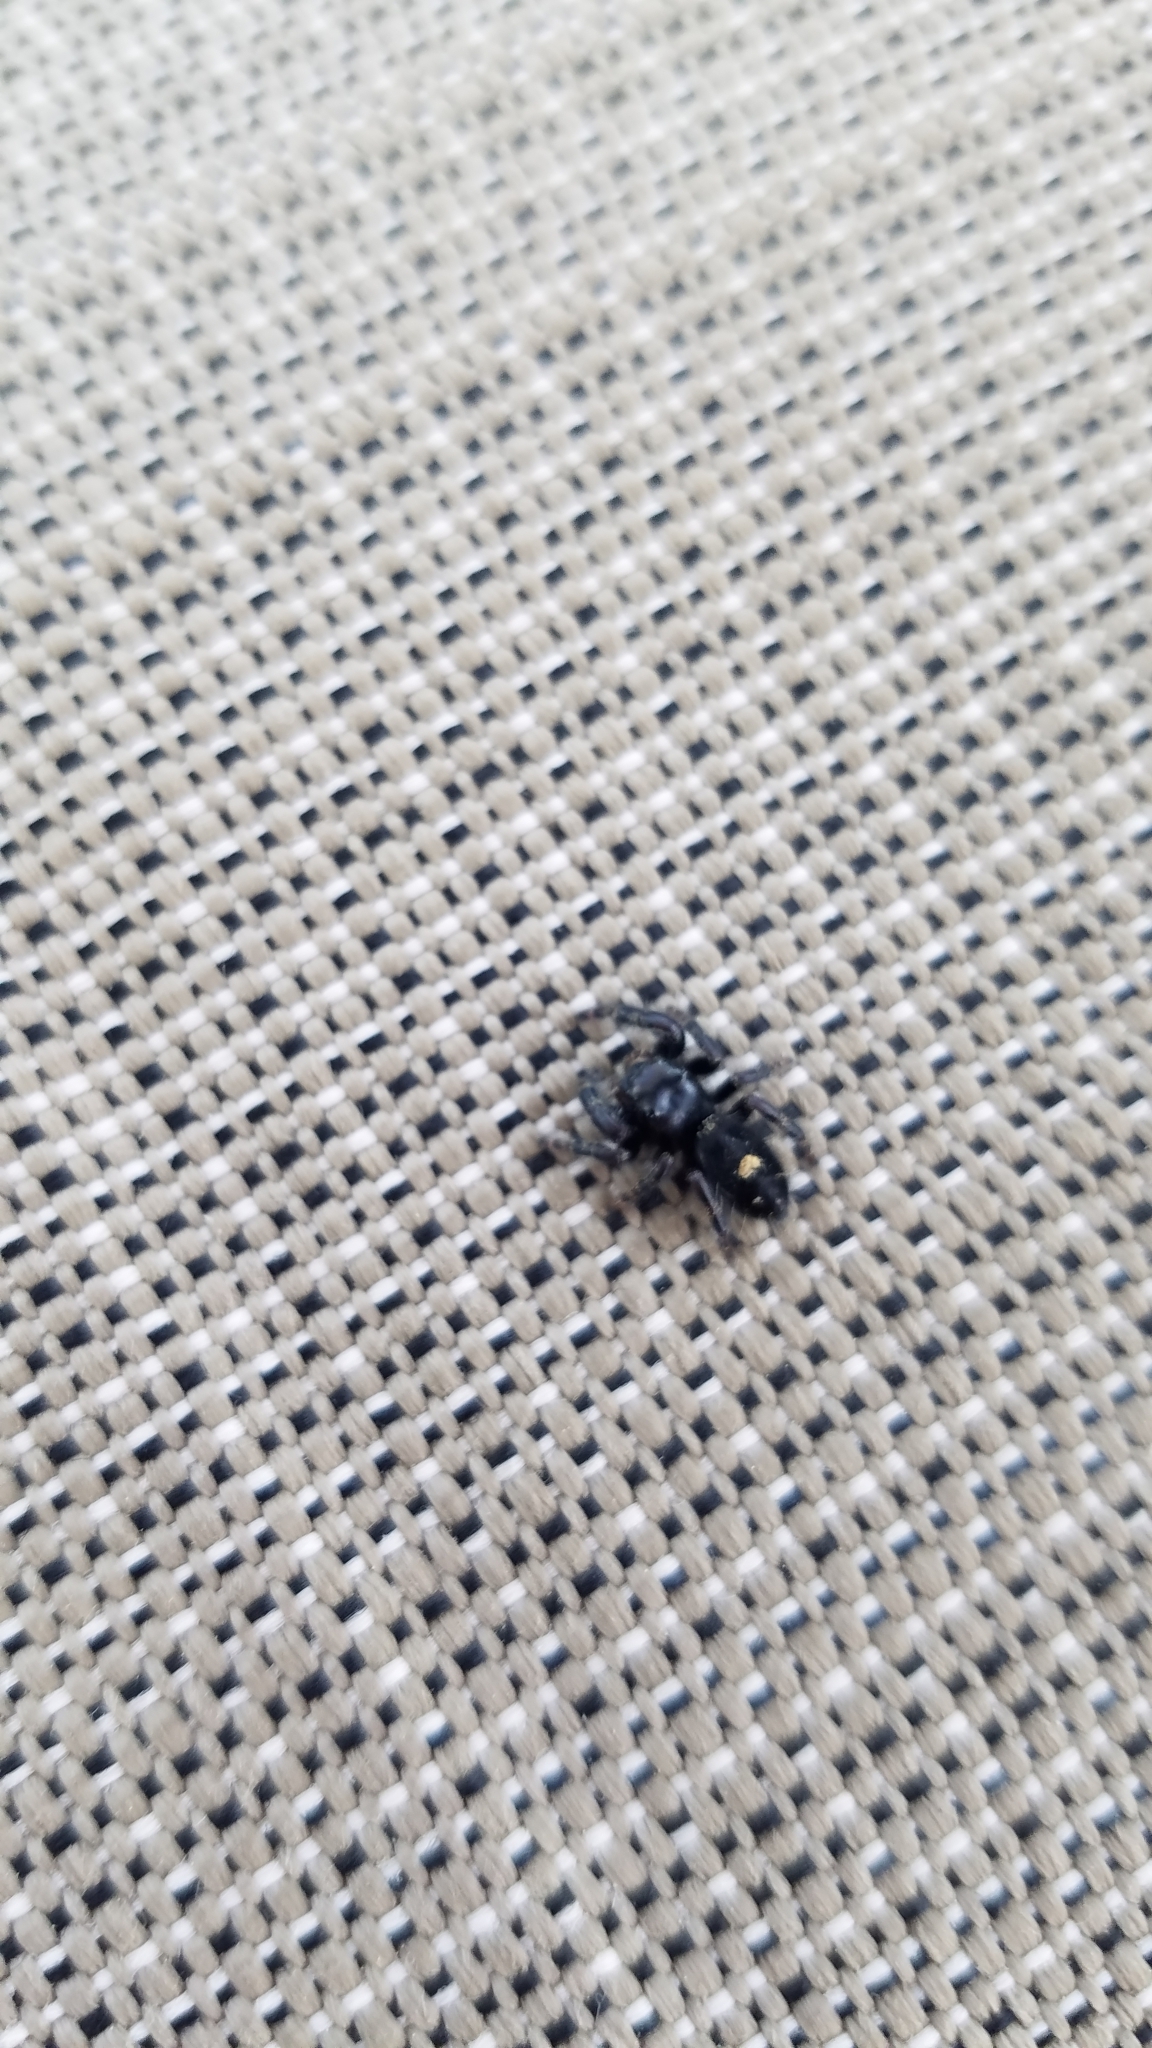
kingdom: Animalia
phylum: Arthropoda
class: Arachnida
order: Araneae
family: Salticidae
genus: Phidippus
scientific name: Phidippus audax
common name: Bold jumper
